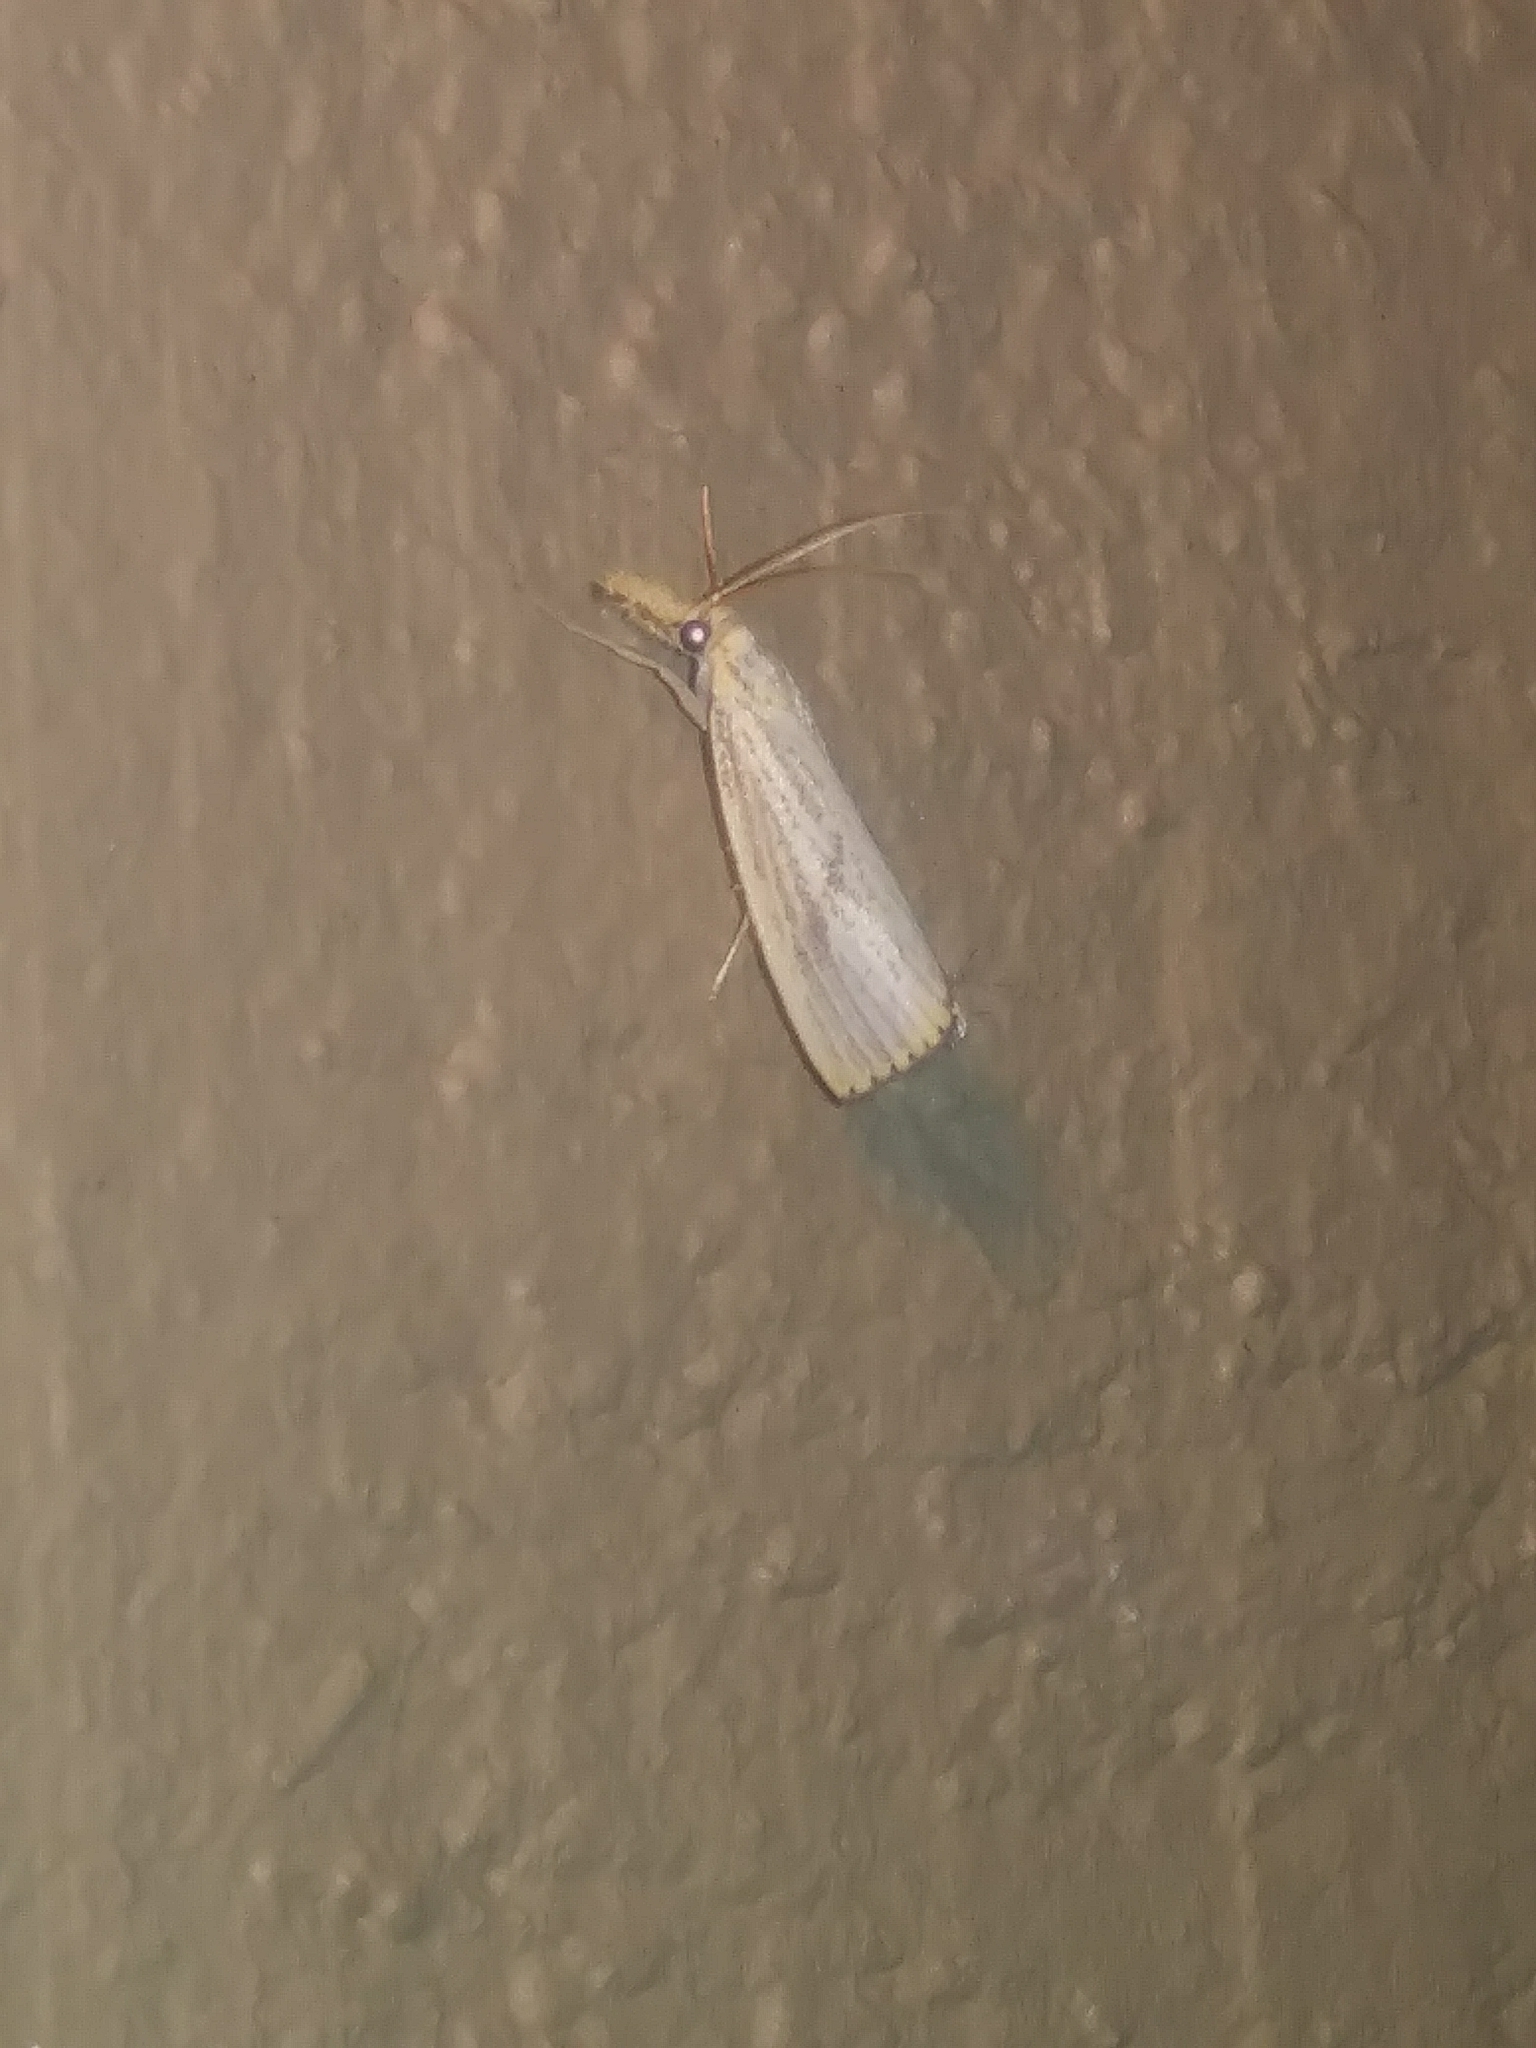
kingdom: Animalia
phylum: Arthropoda
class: Insecta
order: Lepidoptera
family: Crambidae
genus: Agriphila
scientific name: Agriphila ruricolellus
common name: Lesser vagabond sod webworm
